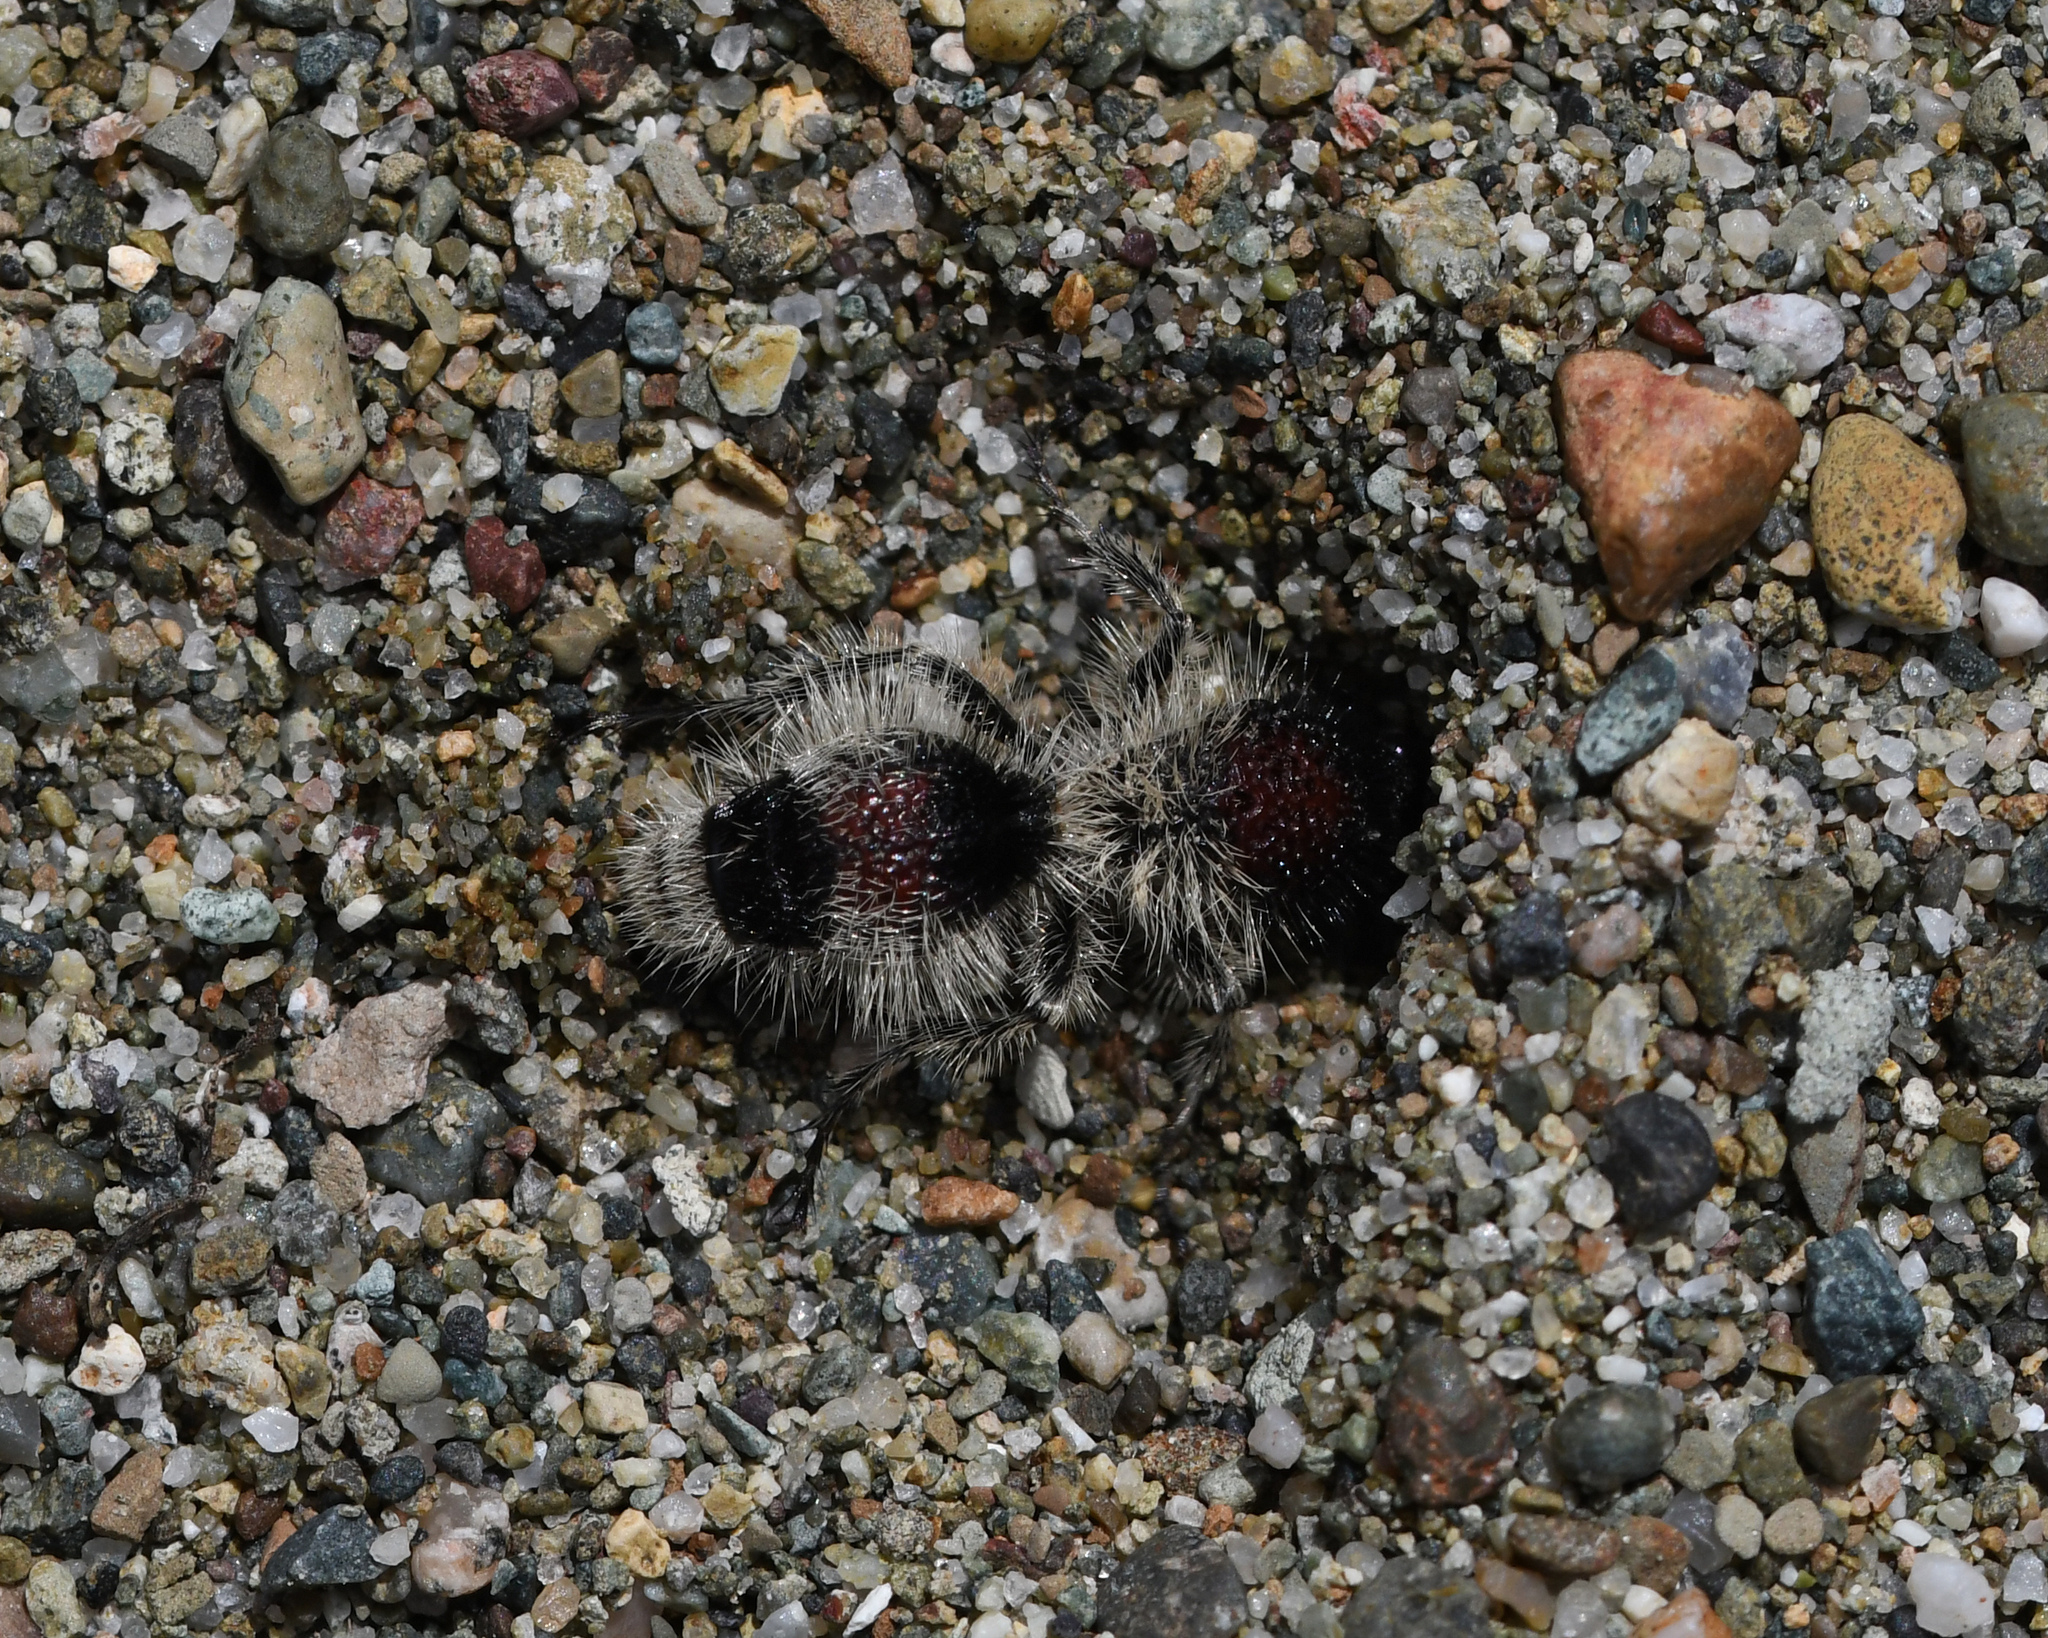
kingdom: Animalia
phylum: Arthropoda
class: Insecta
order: Hymenoptera
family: Mutillidae
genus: Dasymutilla
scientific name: Dasymutilla
